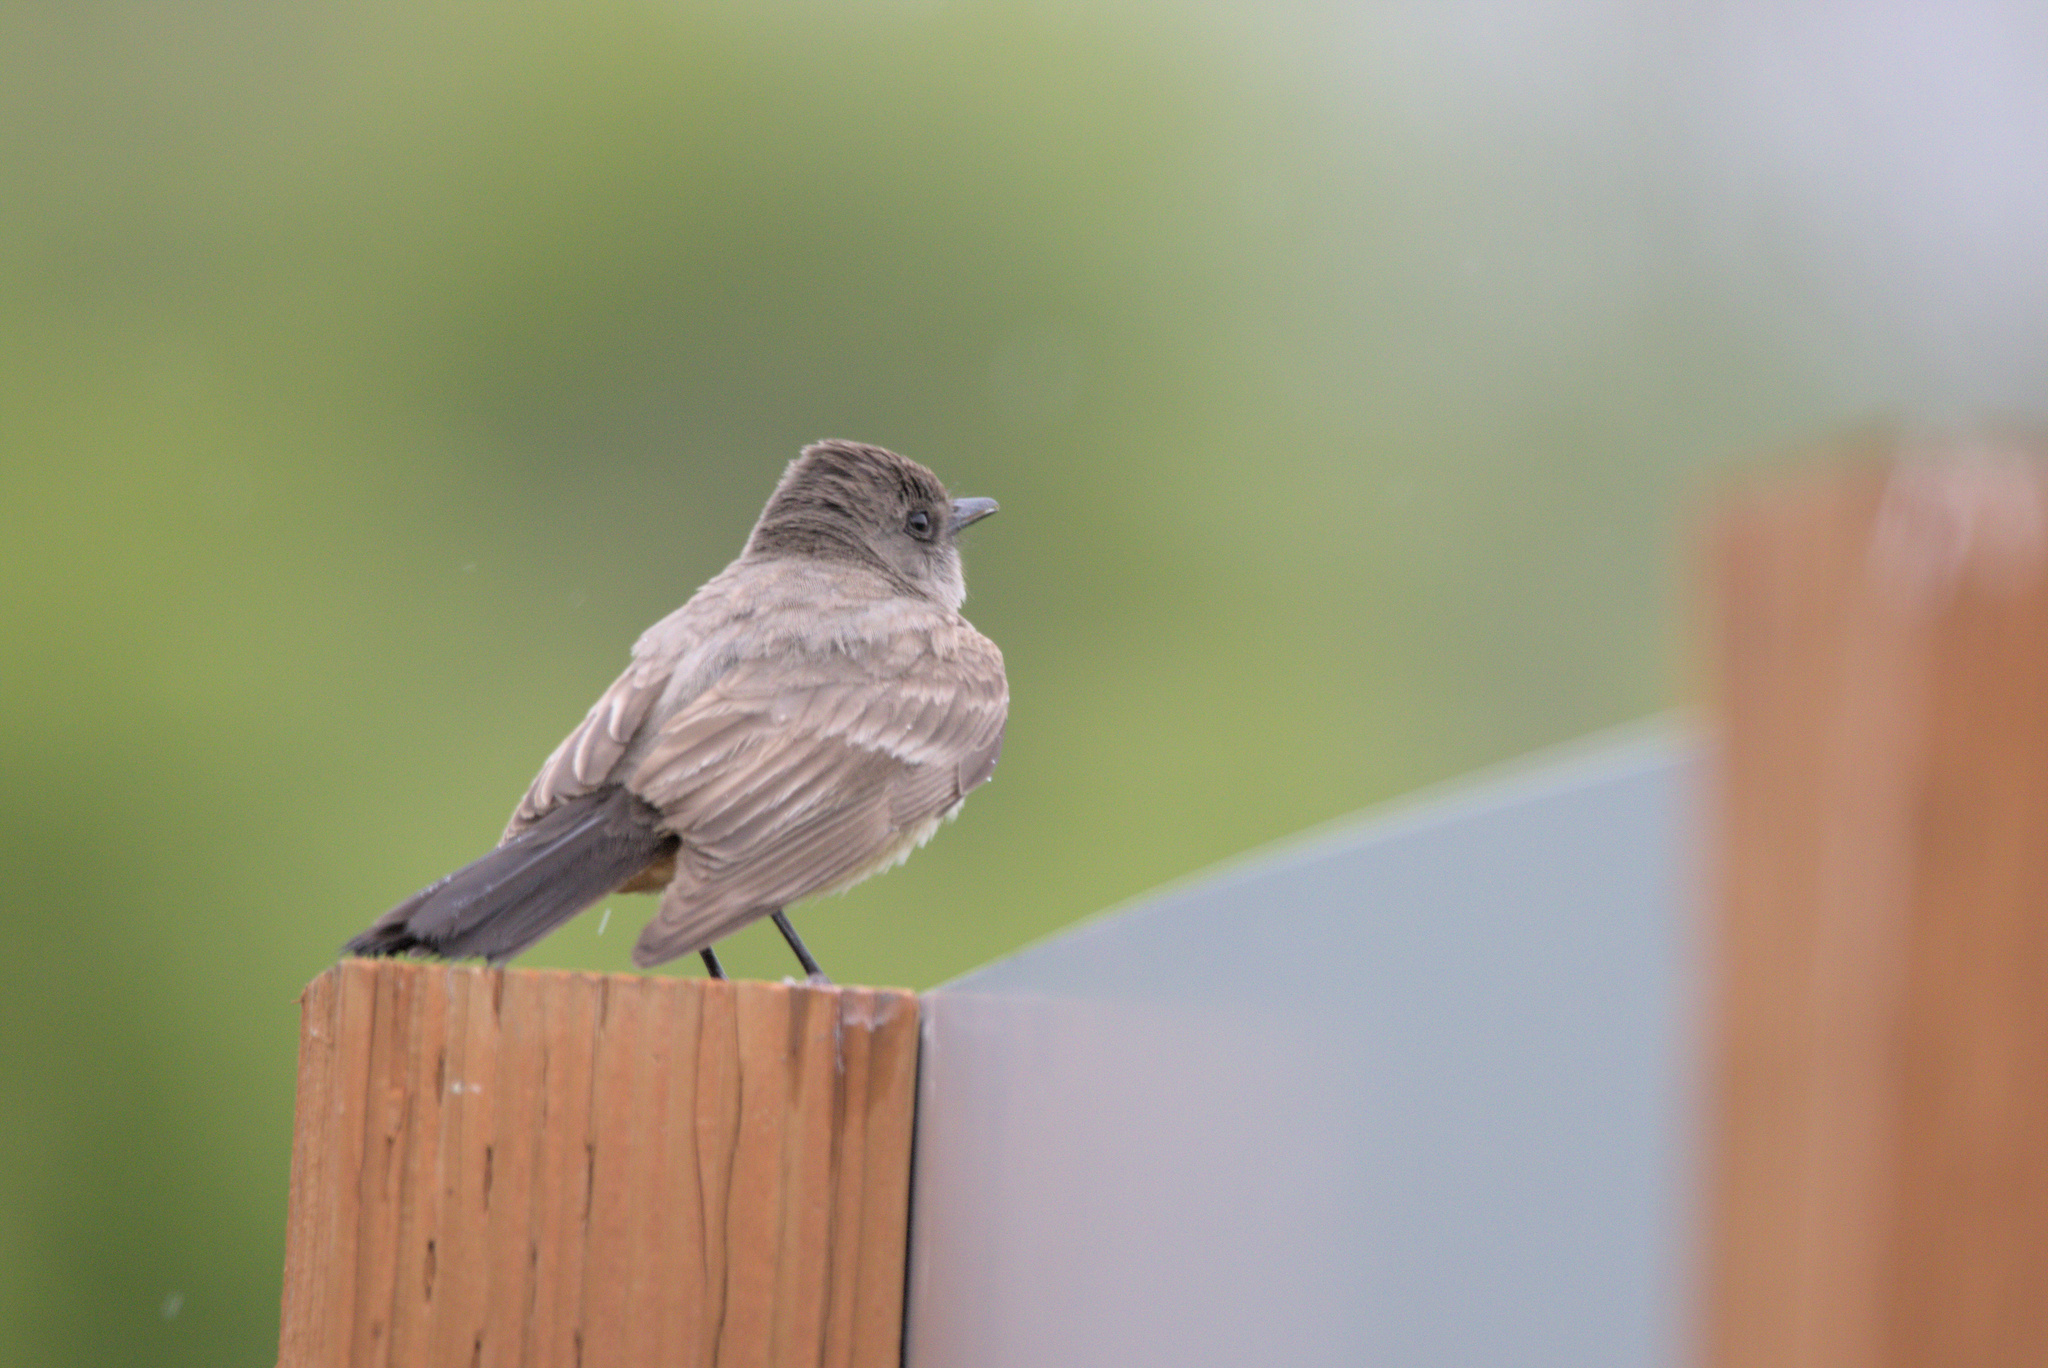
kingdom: Animalia
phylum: Chordata
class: Aves
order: Passeriformes
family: Tyrannidae
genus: Sayornis
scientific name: Sayornis saya
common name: Say's phoebe
